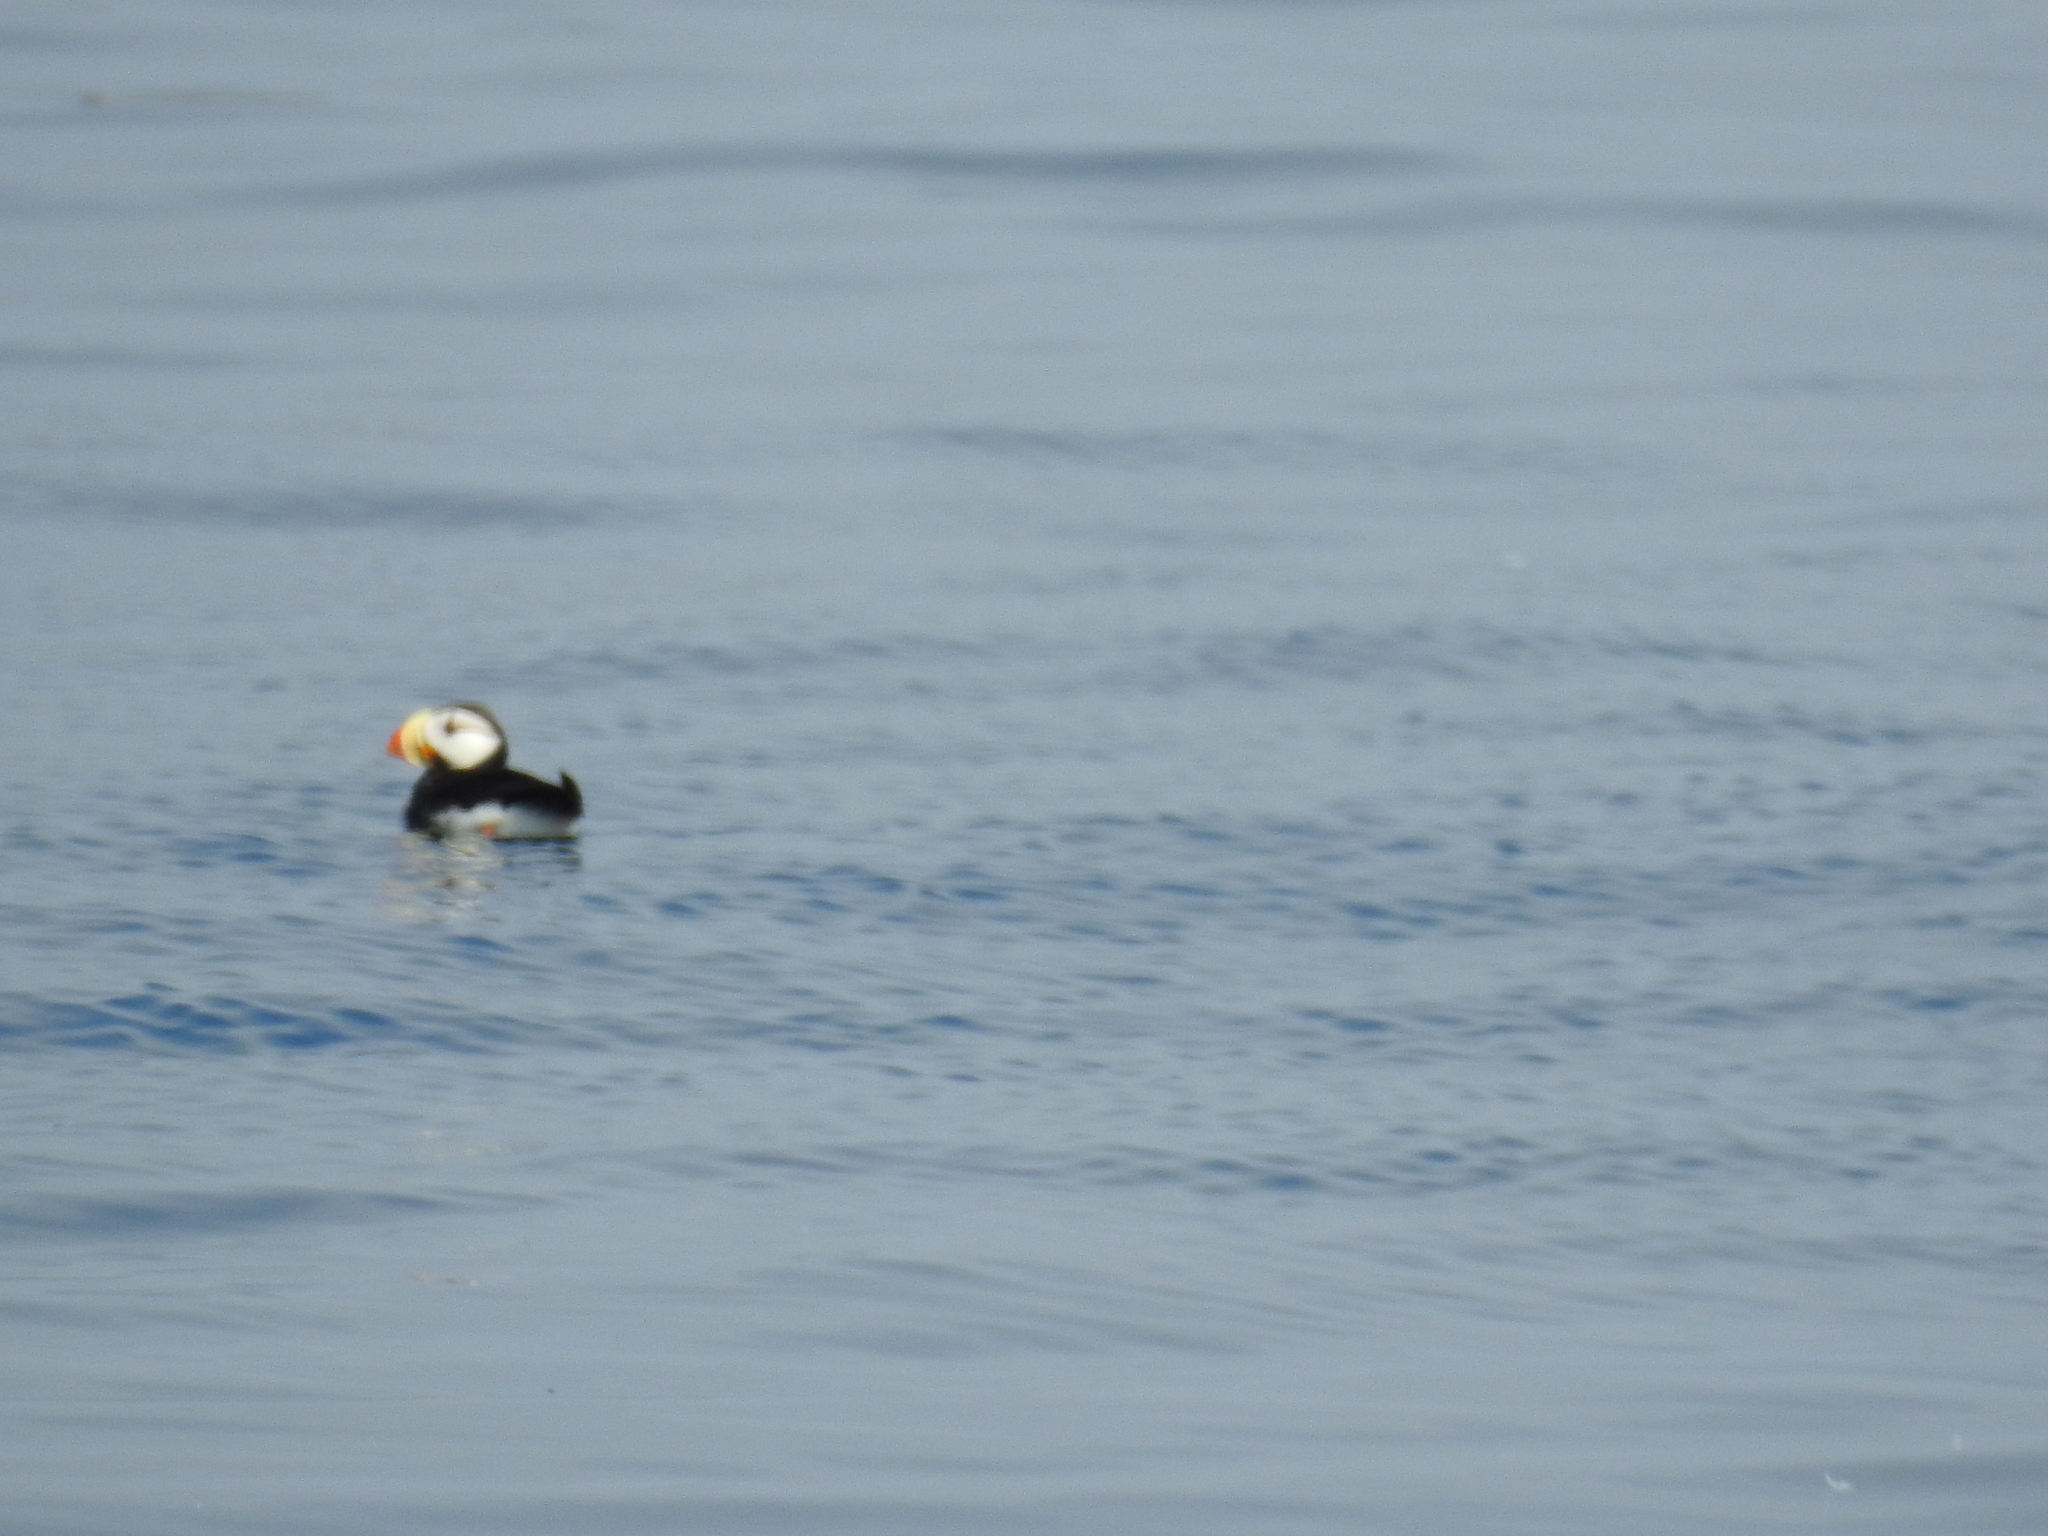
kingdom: Animalia
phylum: Chordata
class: Aves
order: Charadriiformes
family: Alcidae
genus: Fratercula
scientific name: Fratercula corniculata
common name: Horned puffin
